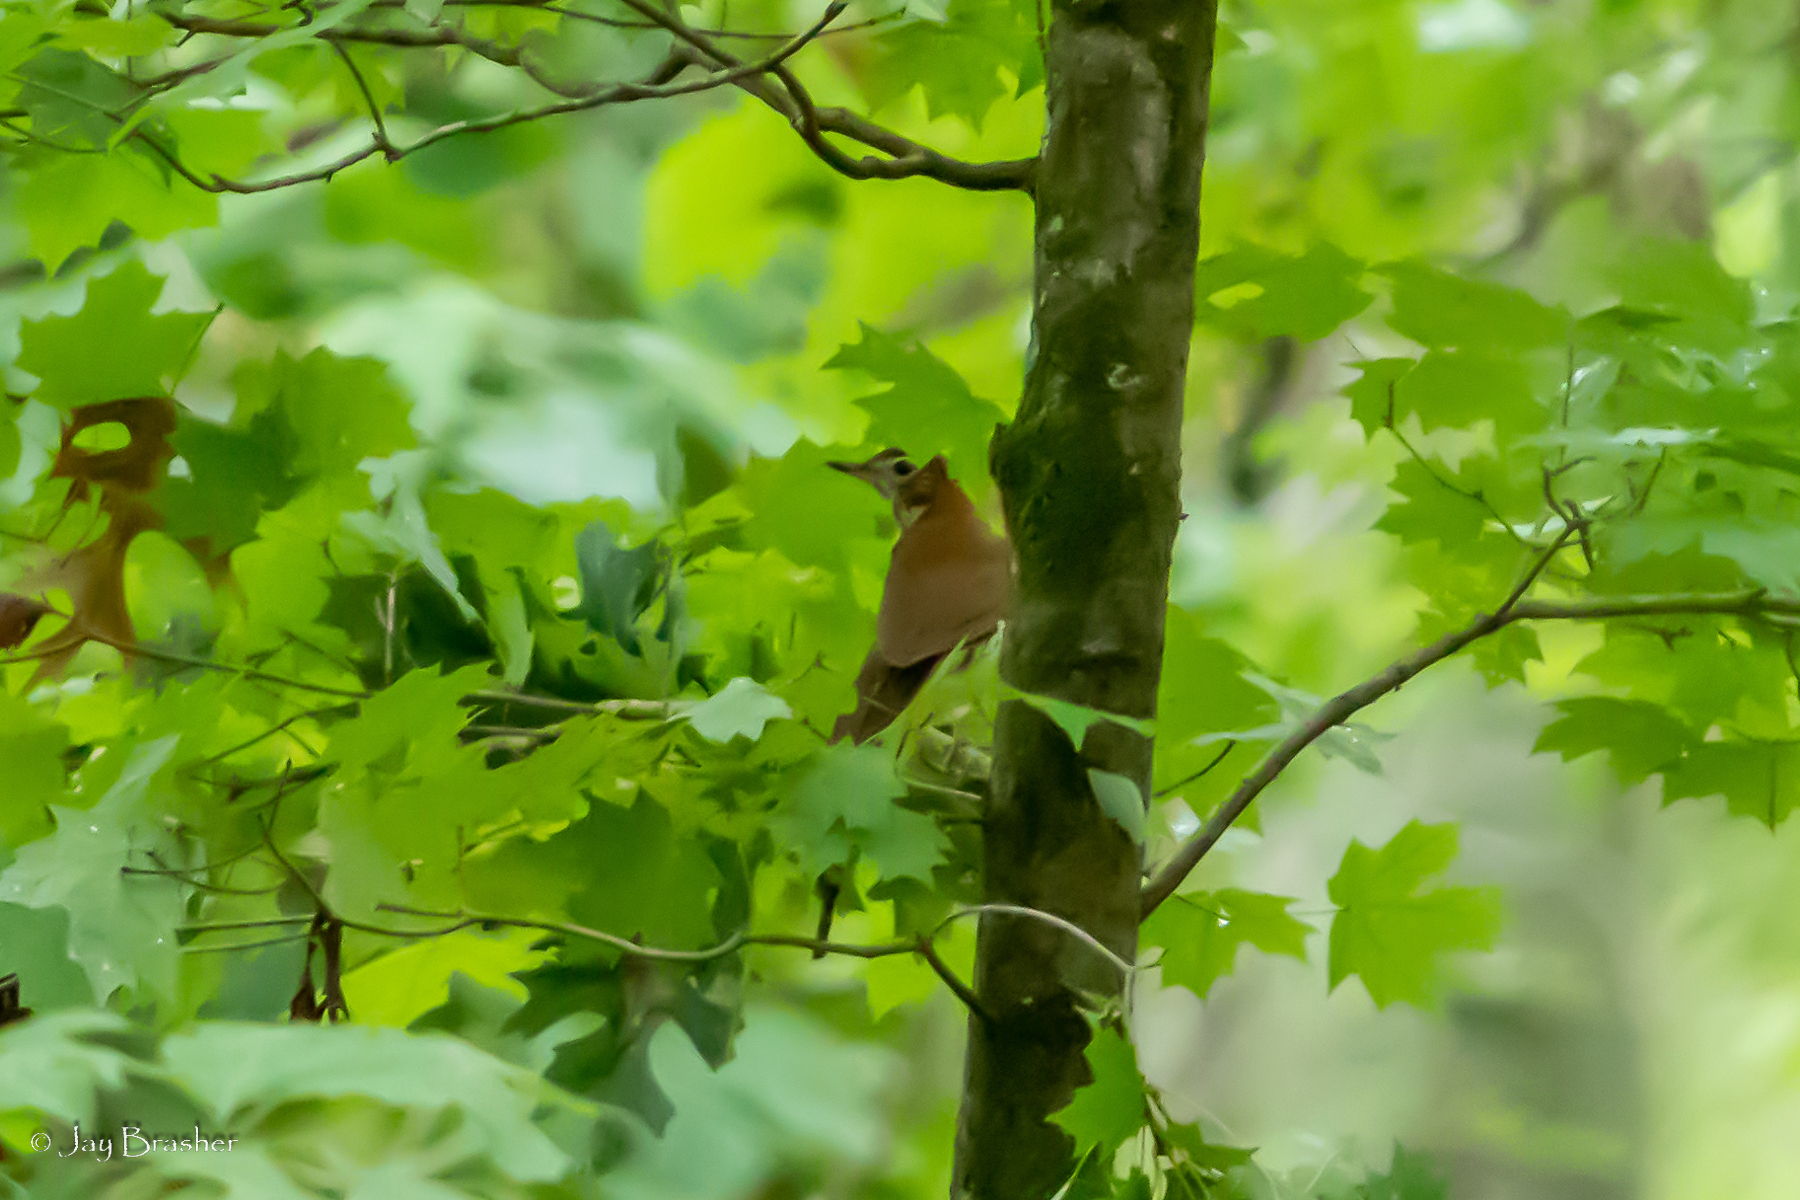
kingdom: Animalia
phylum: Chordata
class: Aves
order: Passeriformes
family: Turdidae
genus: Hylocichla
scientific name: Hylocichla mustelina
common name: Wood thrush
